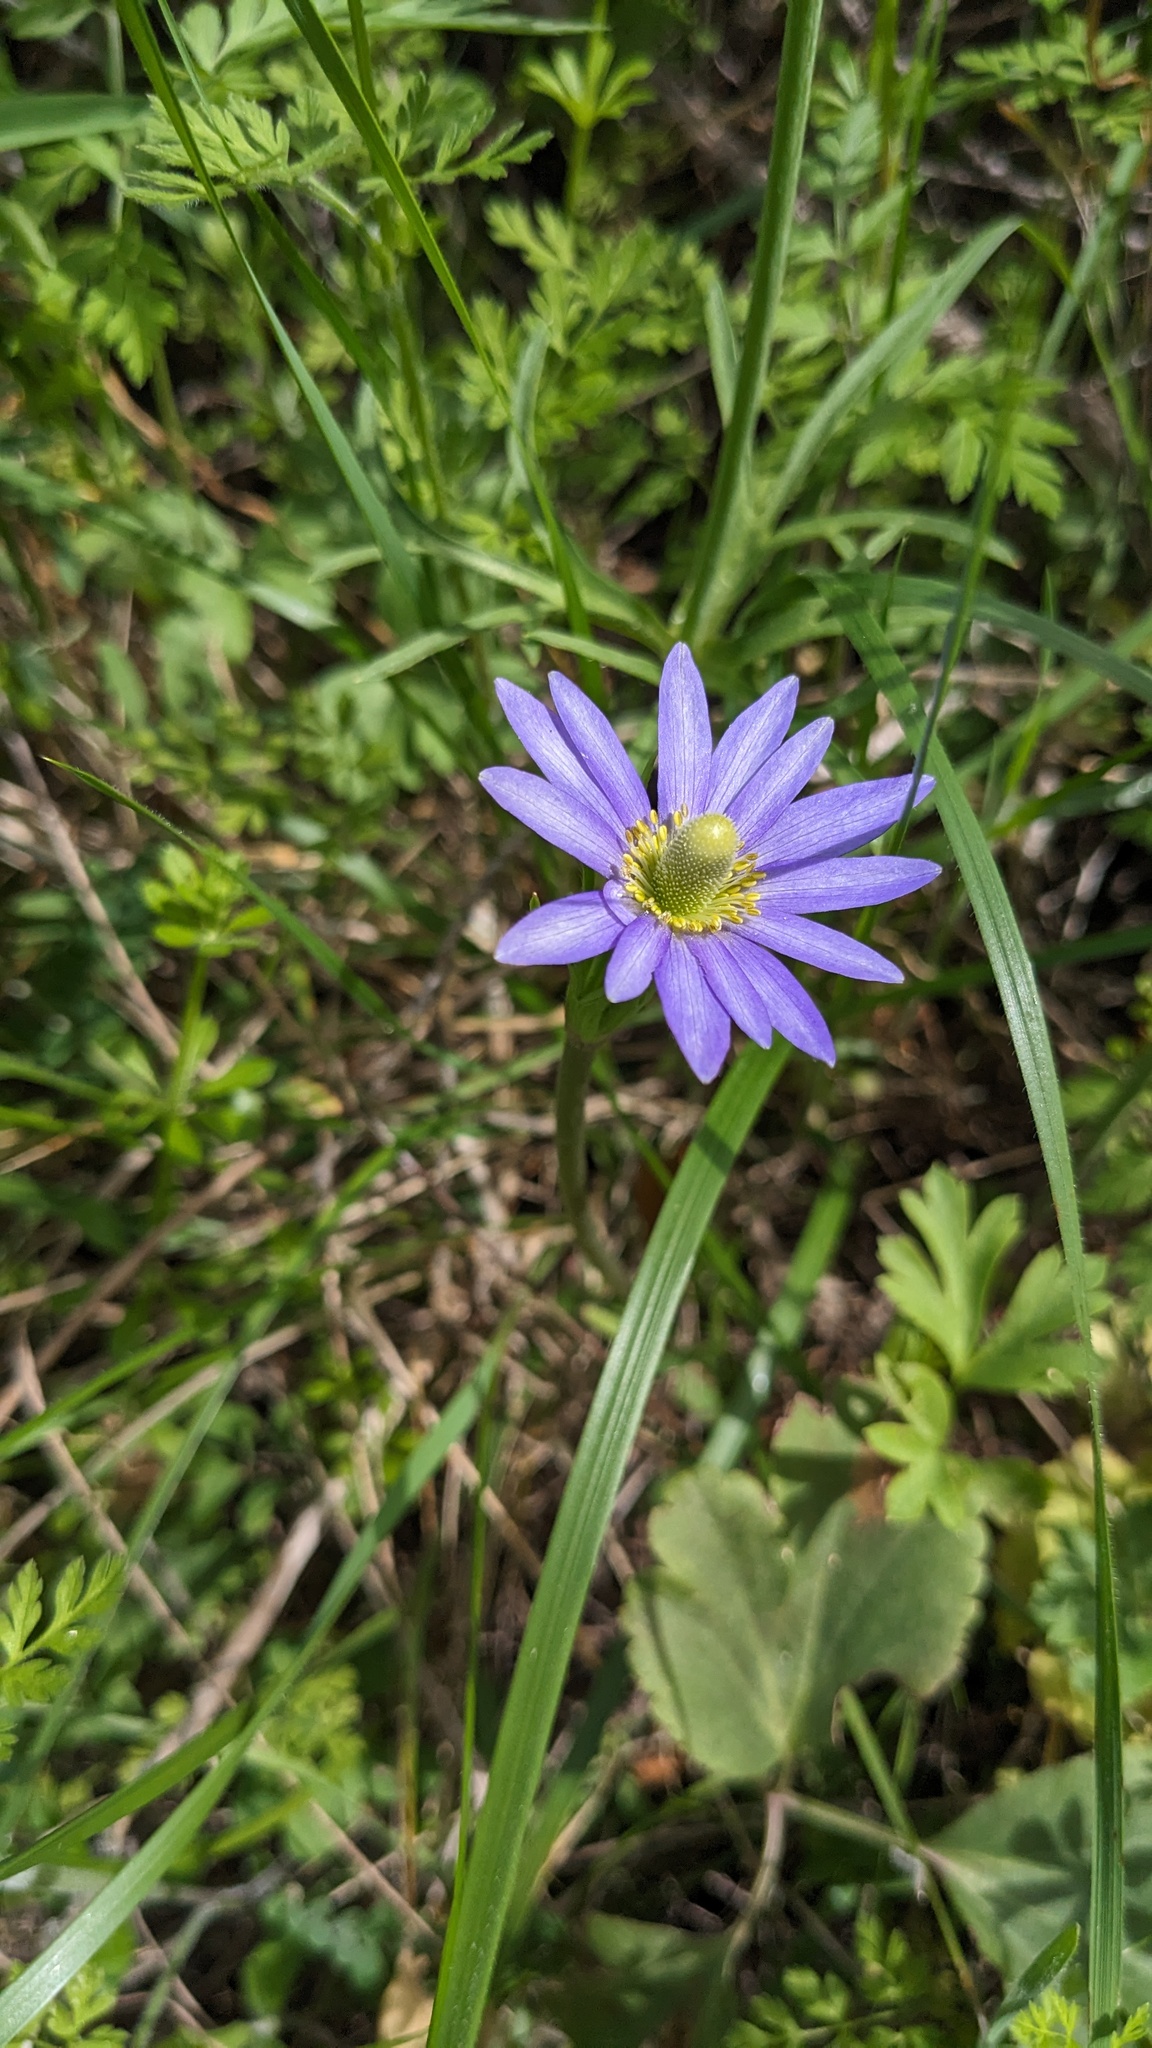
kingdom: Plantae
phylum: Tracheophyta
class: Magnoliopsida
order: Ranunculales
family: Ranunculaceae
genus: Anemone
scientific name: Anemone berlandieri
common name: Ten-petal anemone
